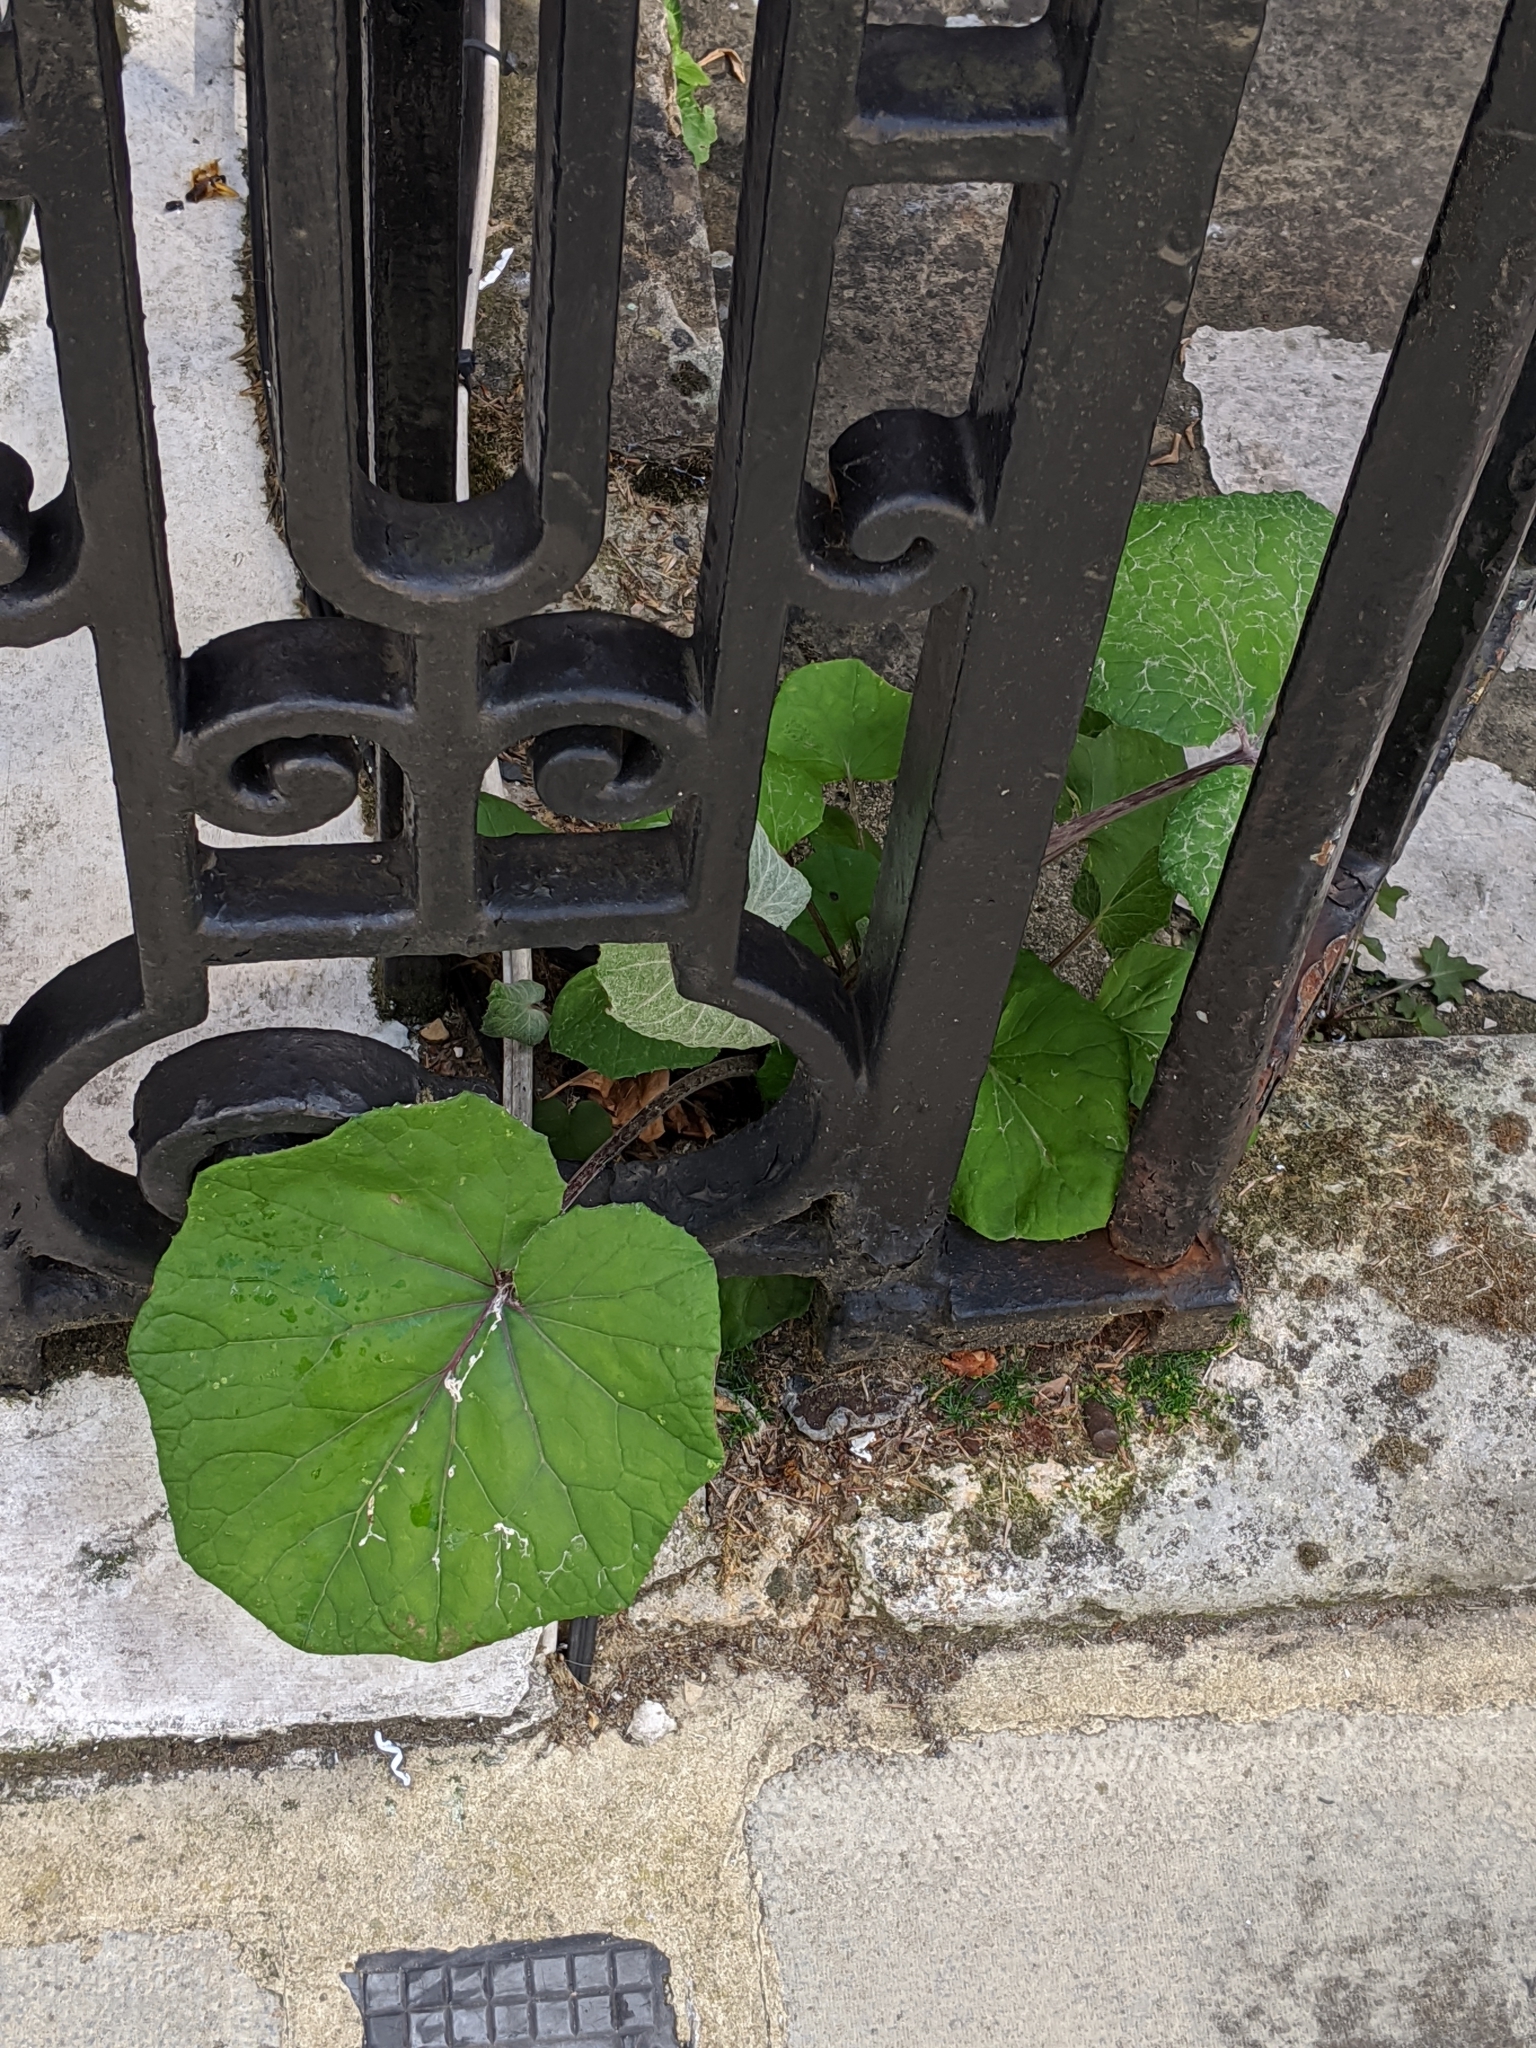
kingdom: Plantae
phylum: Tracheophyta
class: Magnoliopsida
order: Asterales
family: Asteraceae
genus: Tussilago
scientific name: Tussilago farfara
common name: Coltsfoot
